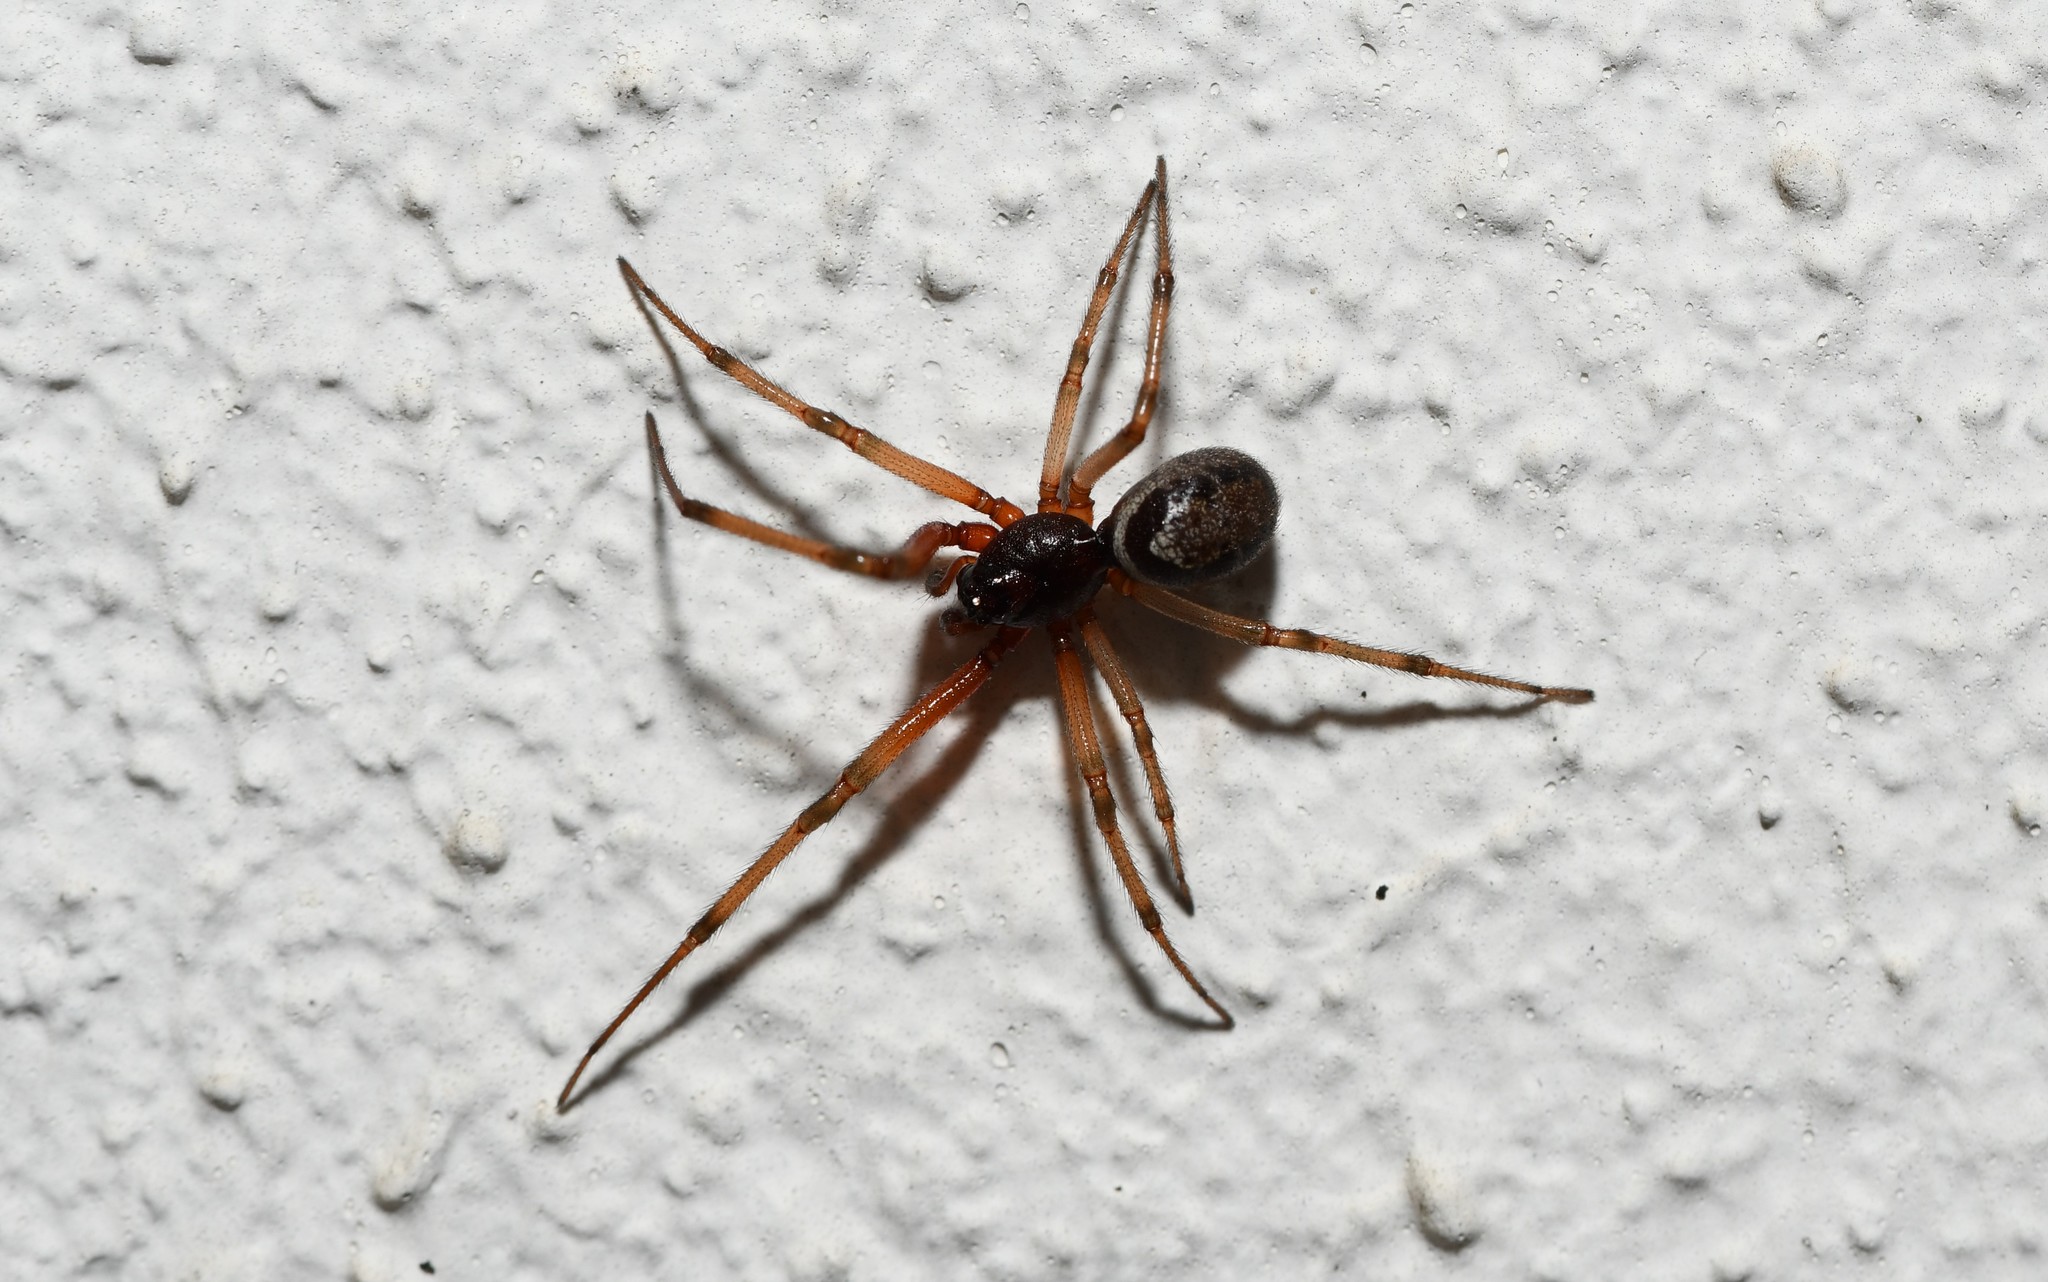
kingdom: Animalia
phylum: Arthropoda
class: Arachnida
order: Araneae
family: Theridiidae
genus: Steatoda
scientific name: Steatoda nobilis
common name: Cobweb weaver
